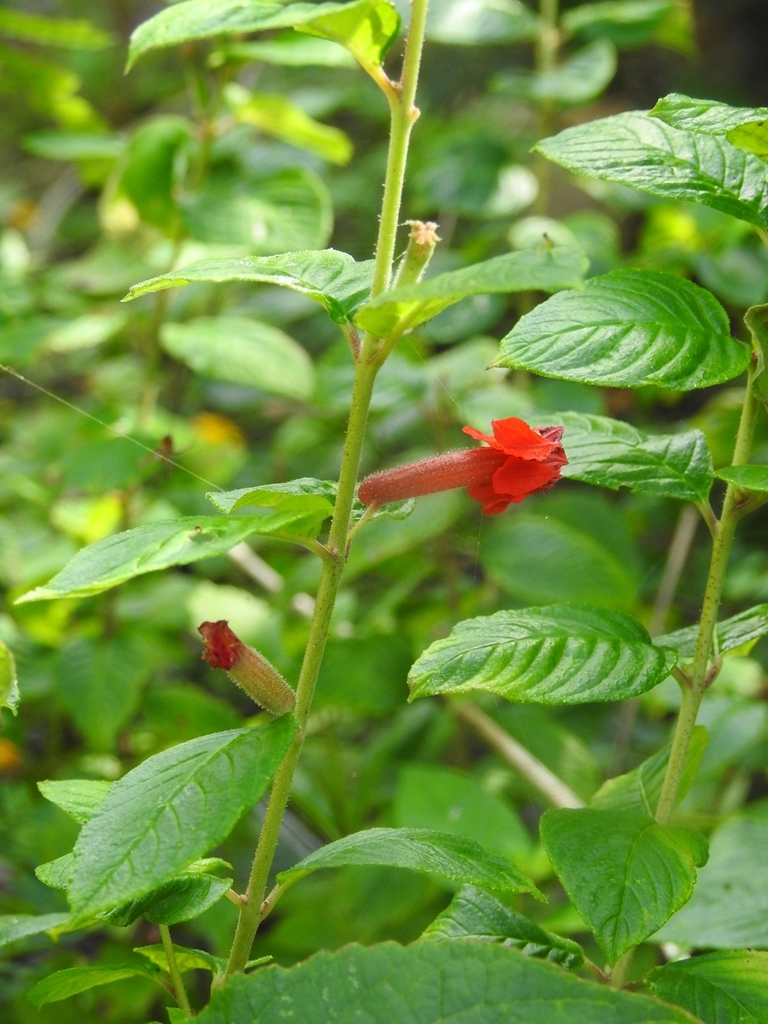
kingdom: Plantae
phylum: Tracheophyta
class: Magnoliopsida
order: Myrtales
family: Lythraceae
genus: Cuphea
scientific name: Cuphea intermedia
